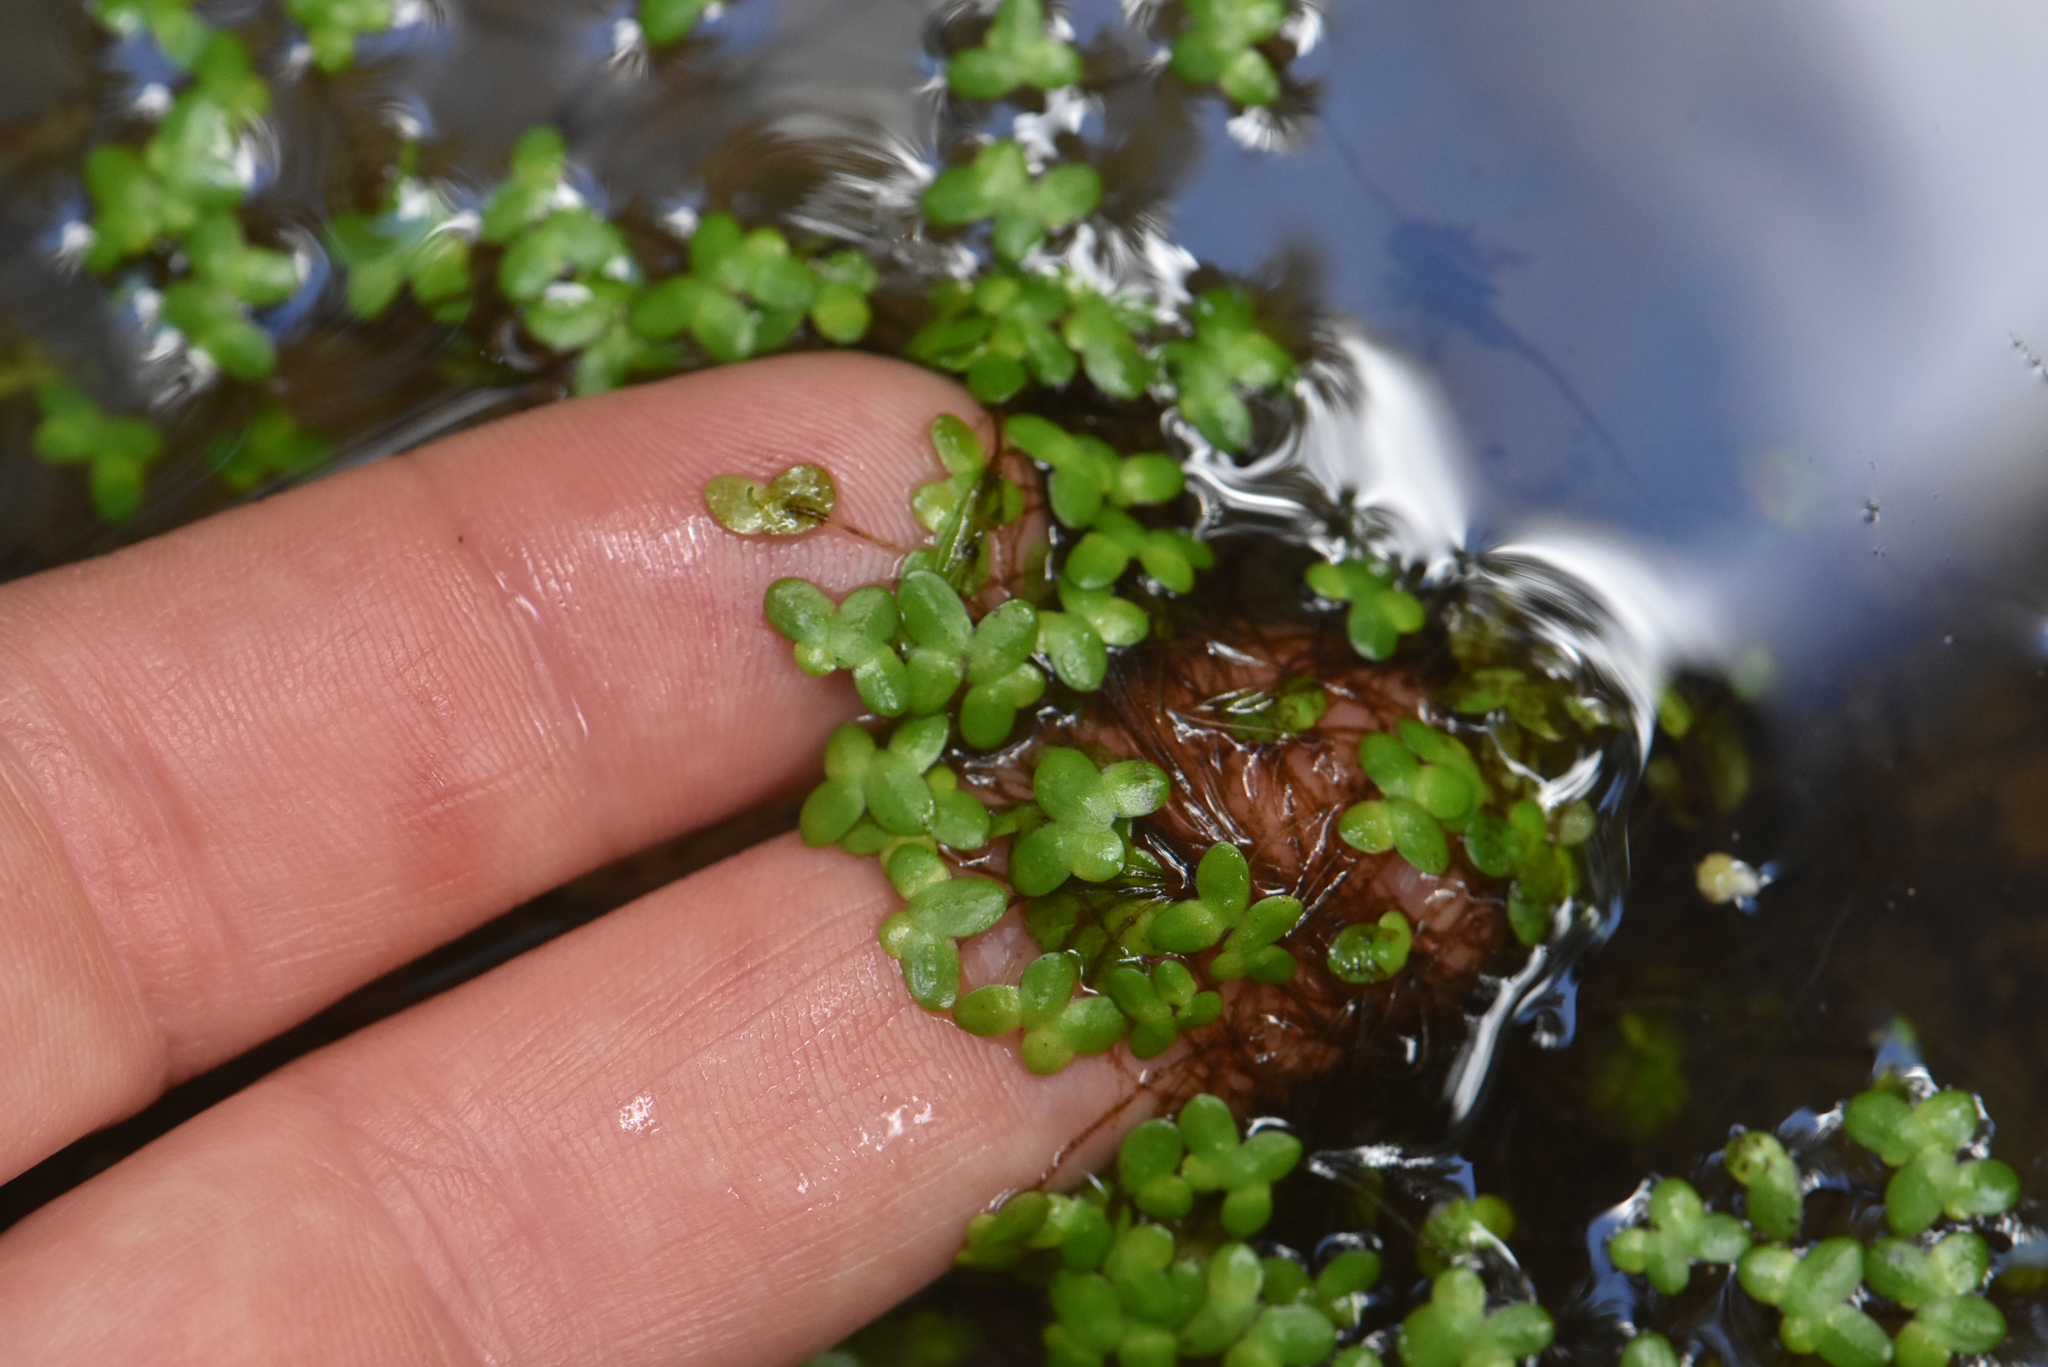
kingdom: Plantae
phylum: Tracheophyta
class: Liliopsida
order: Alismatales
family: Araceae
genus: Lemna
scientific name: Lemna turionifera
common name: Perennial duckweed
